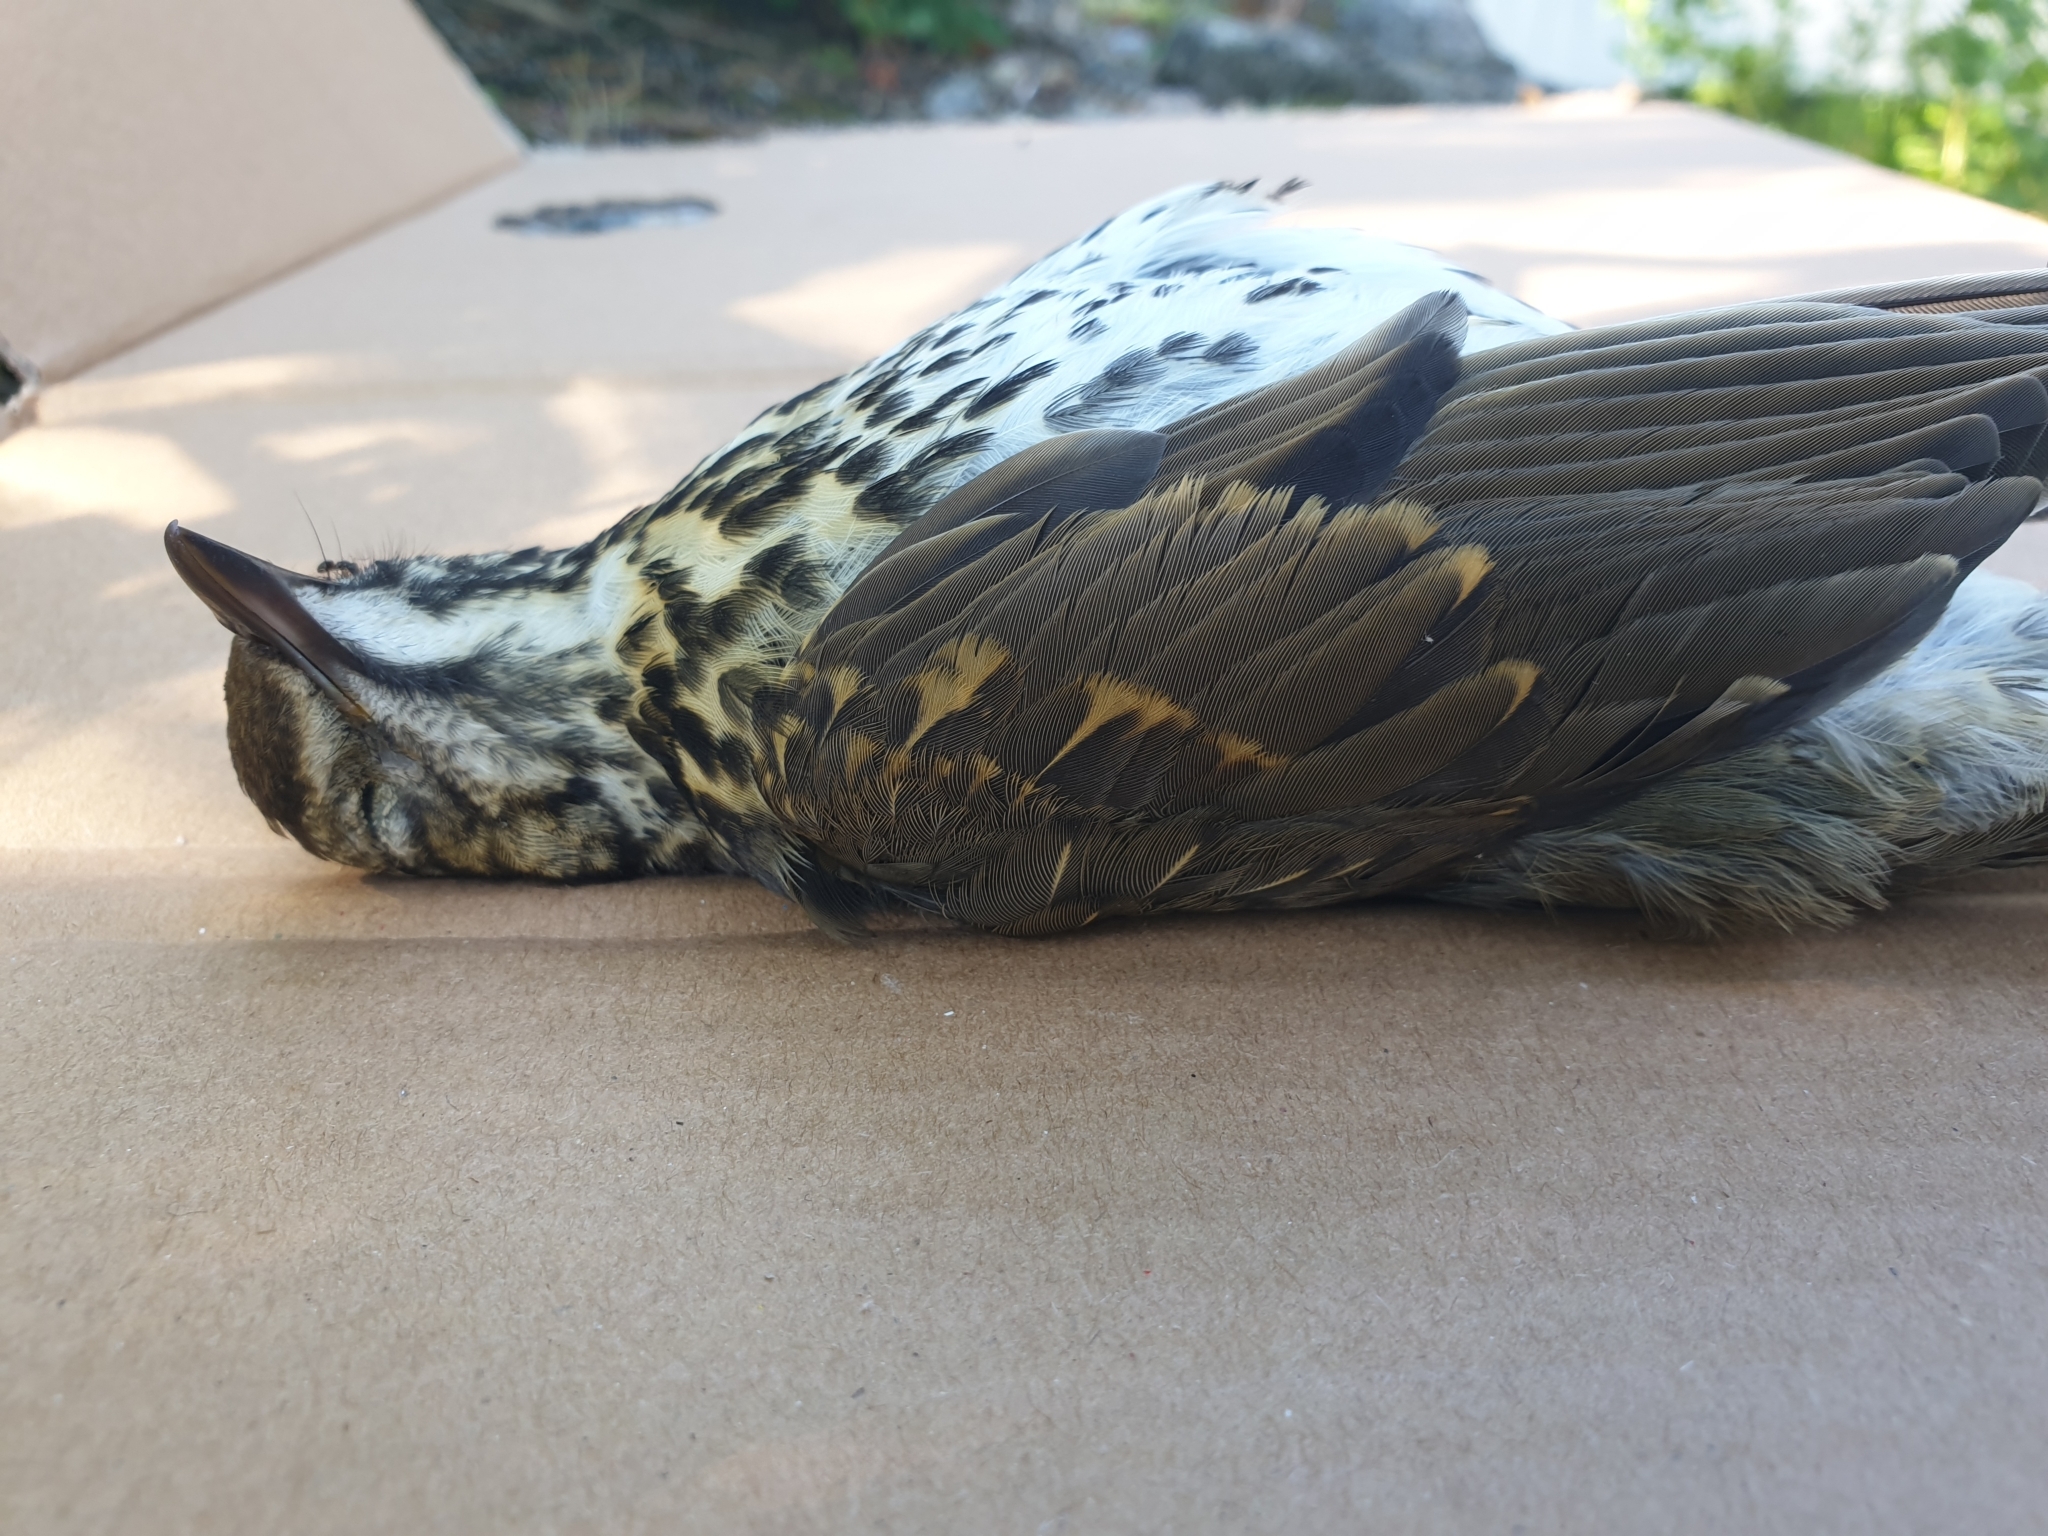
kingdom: Animalia
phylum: Chordata
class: Aves
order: Passeriformes
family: Turdidae
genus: Turdus
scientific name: Turdus philomelos
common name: Song thrush
